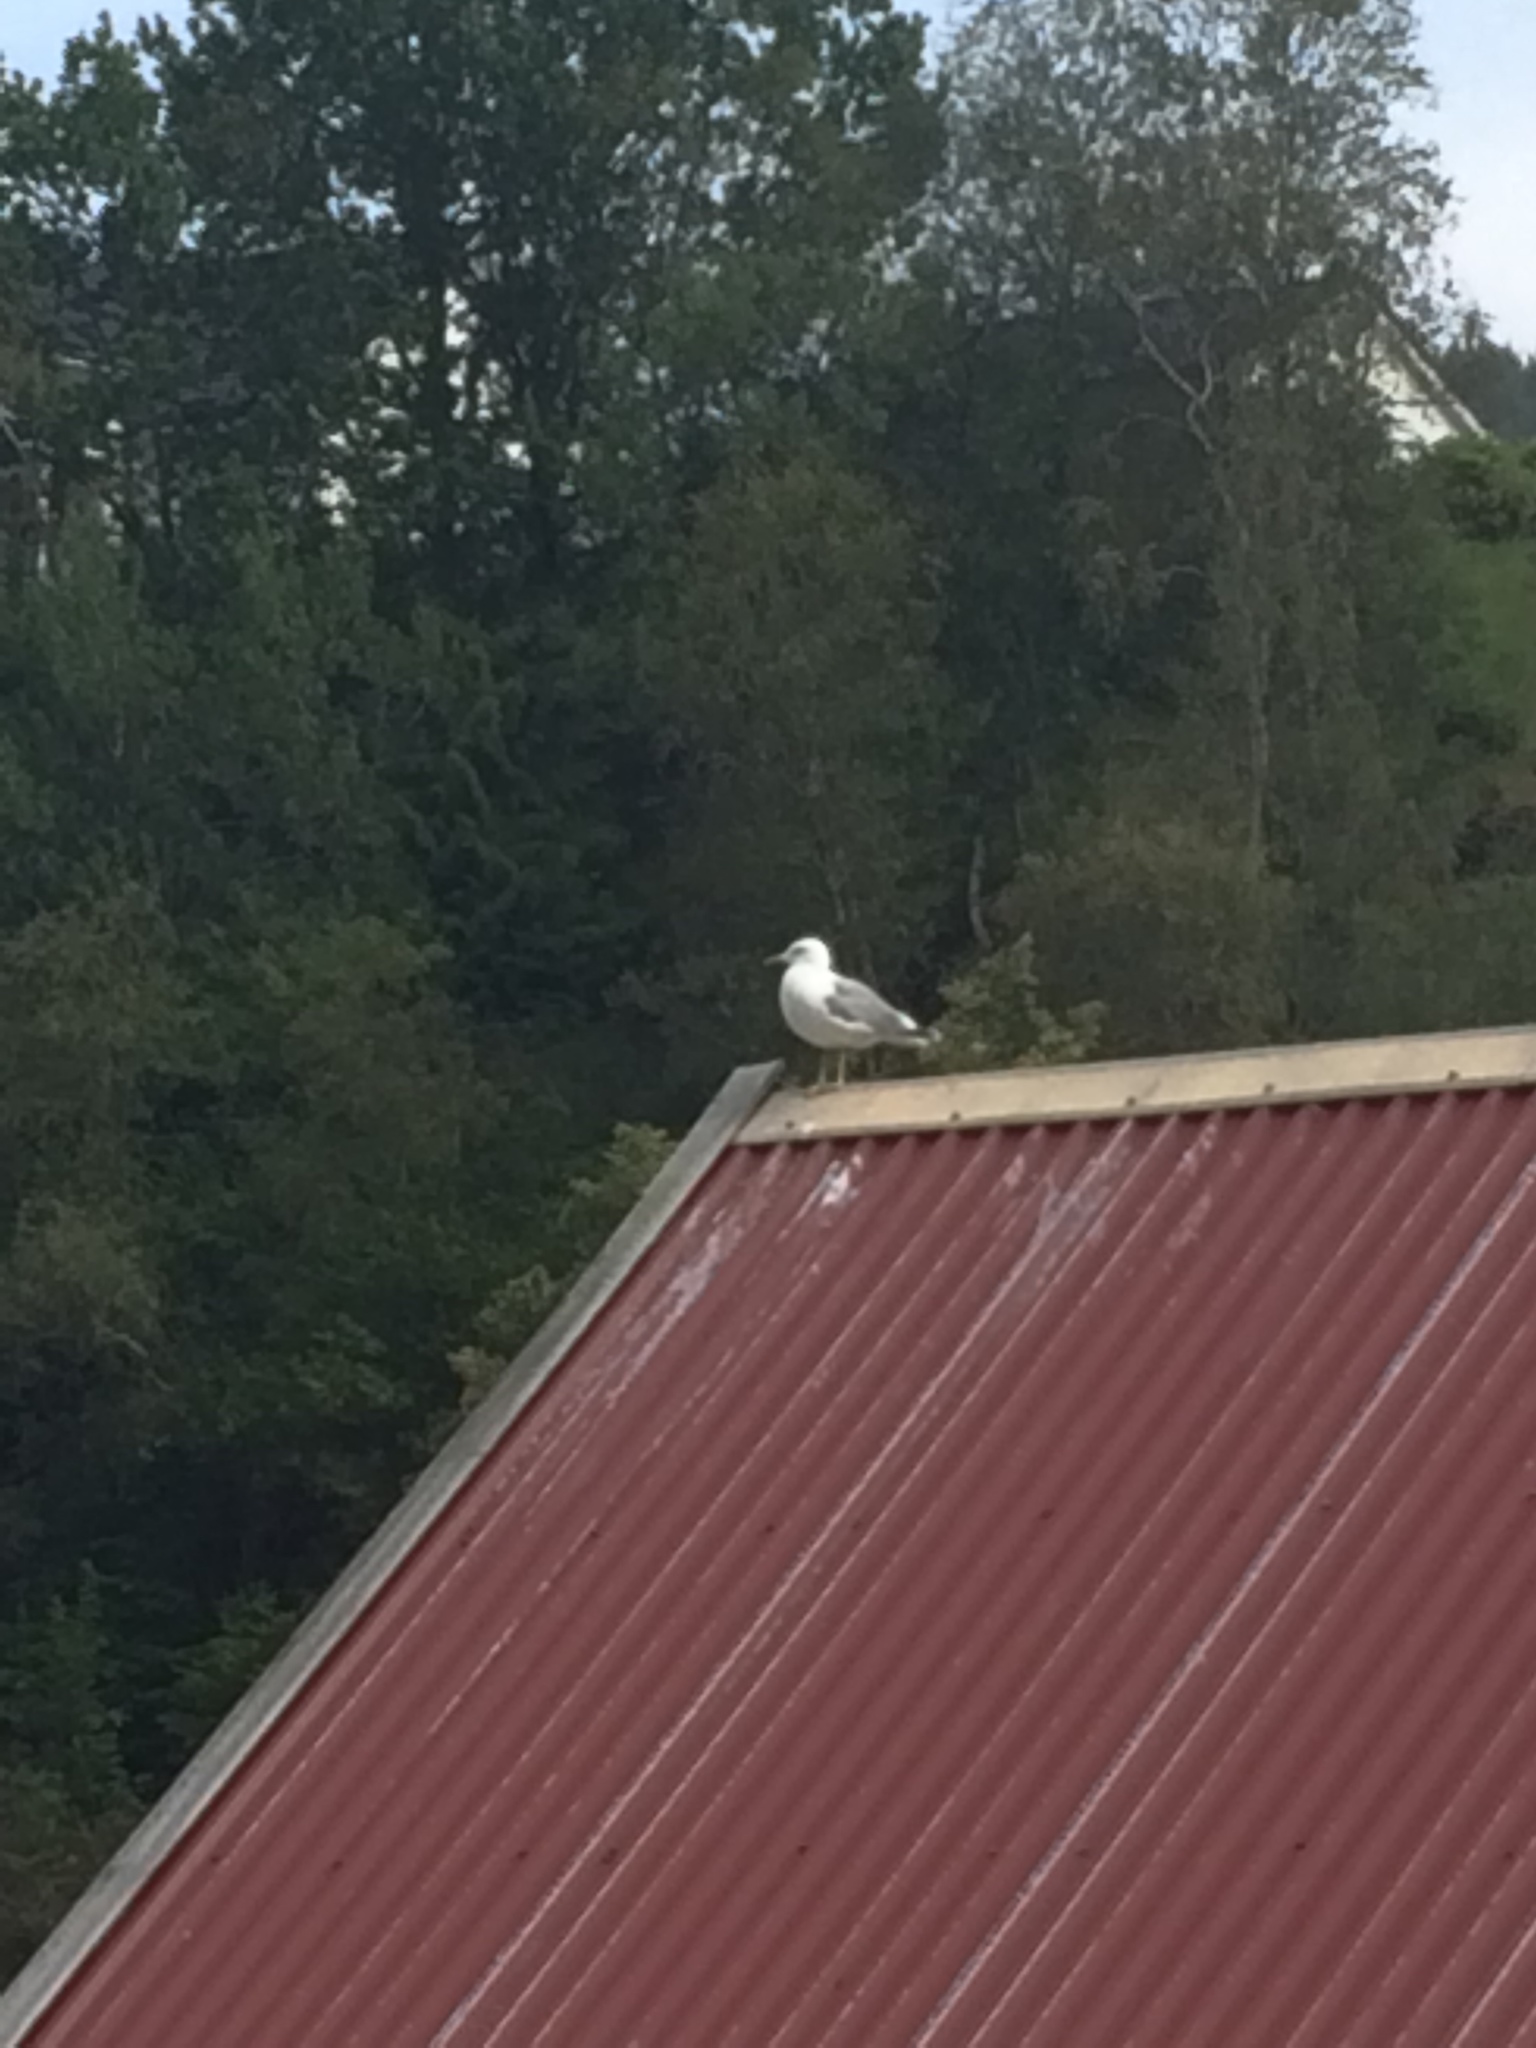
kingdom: Animalia
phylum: Chordata
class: Aves
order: Charadriiformes
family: Laridae
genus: Larus
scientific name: Larus argentatus
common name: Herring gull
